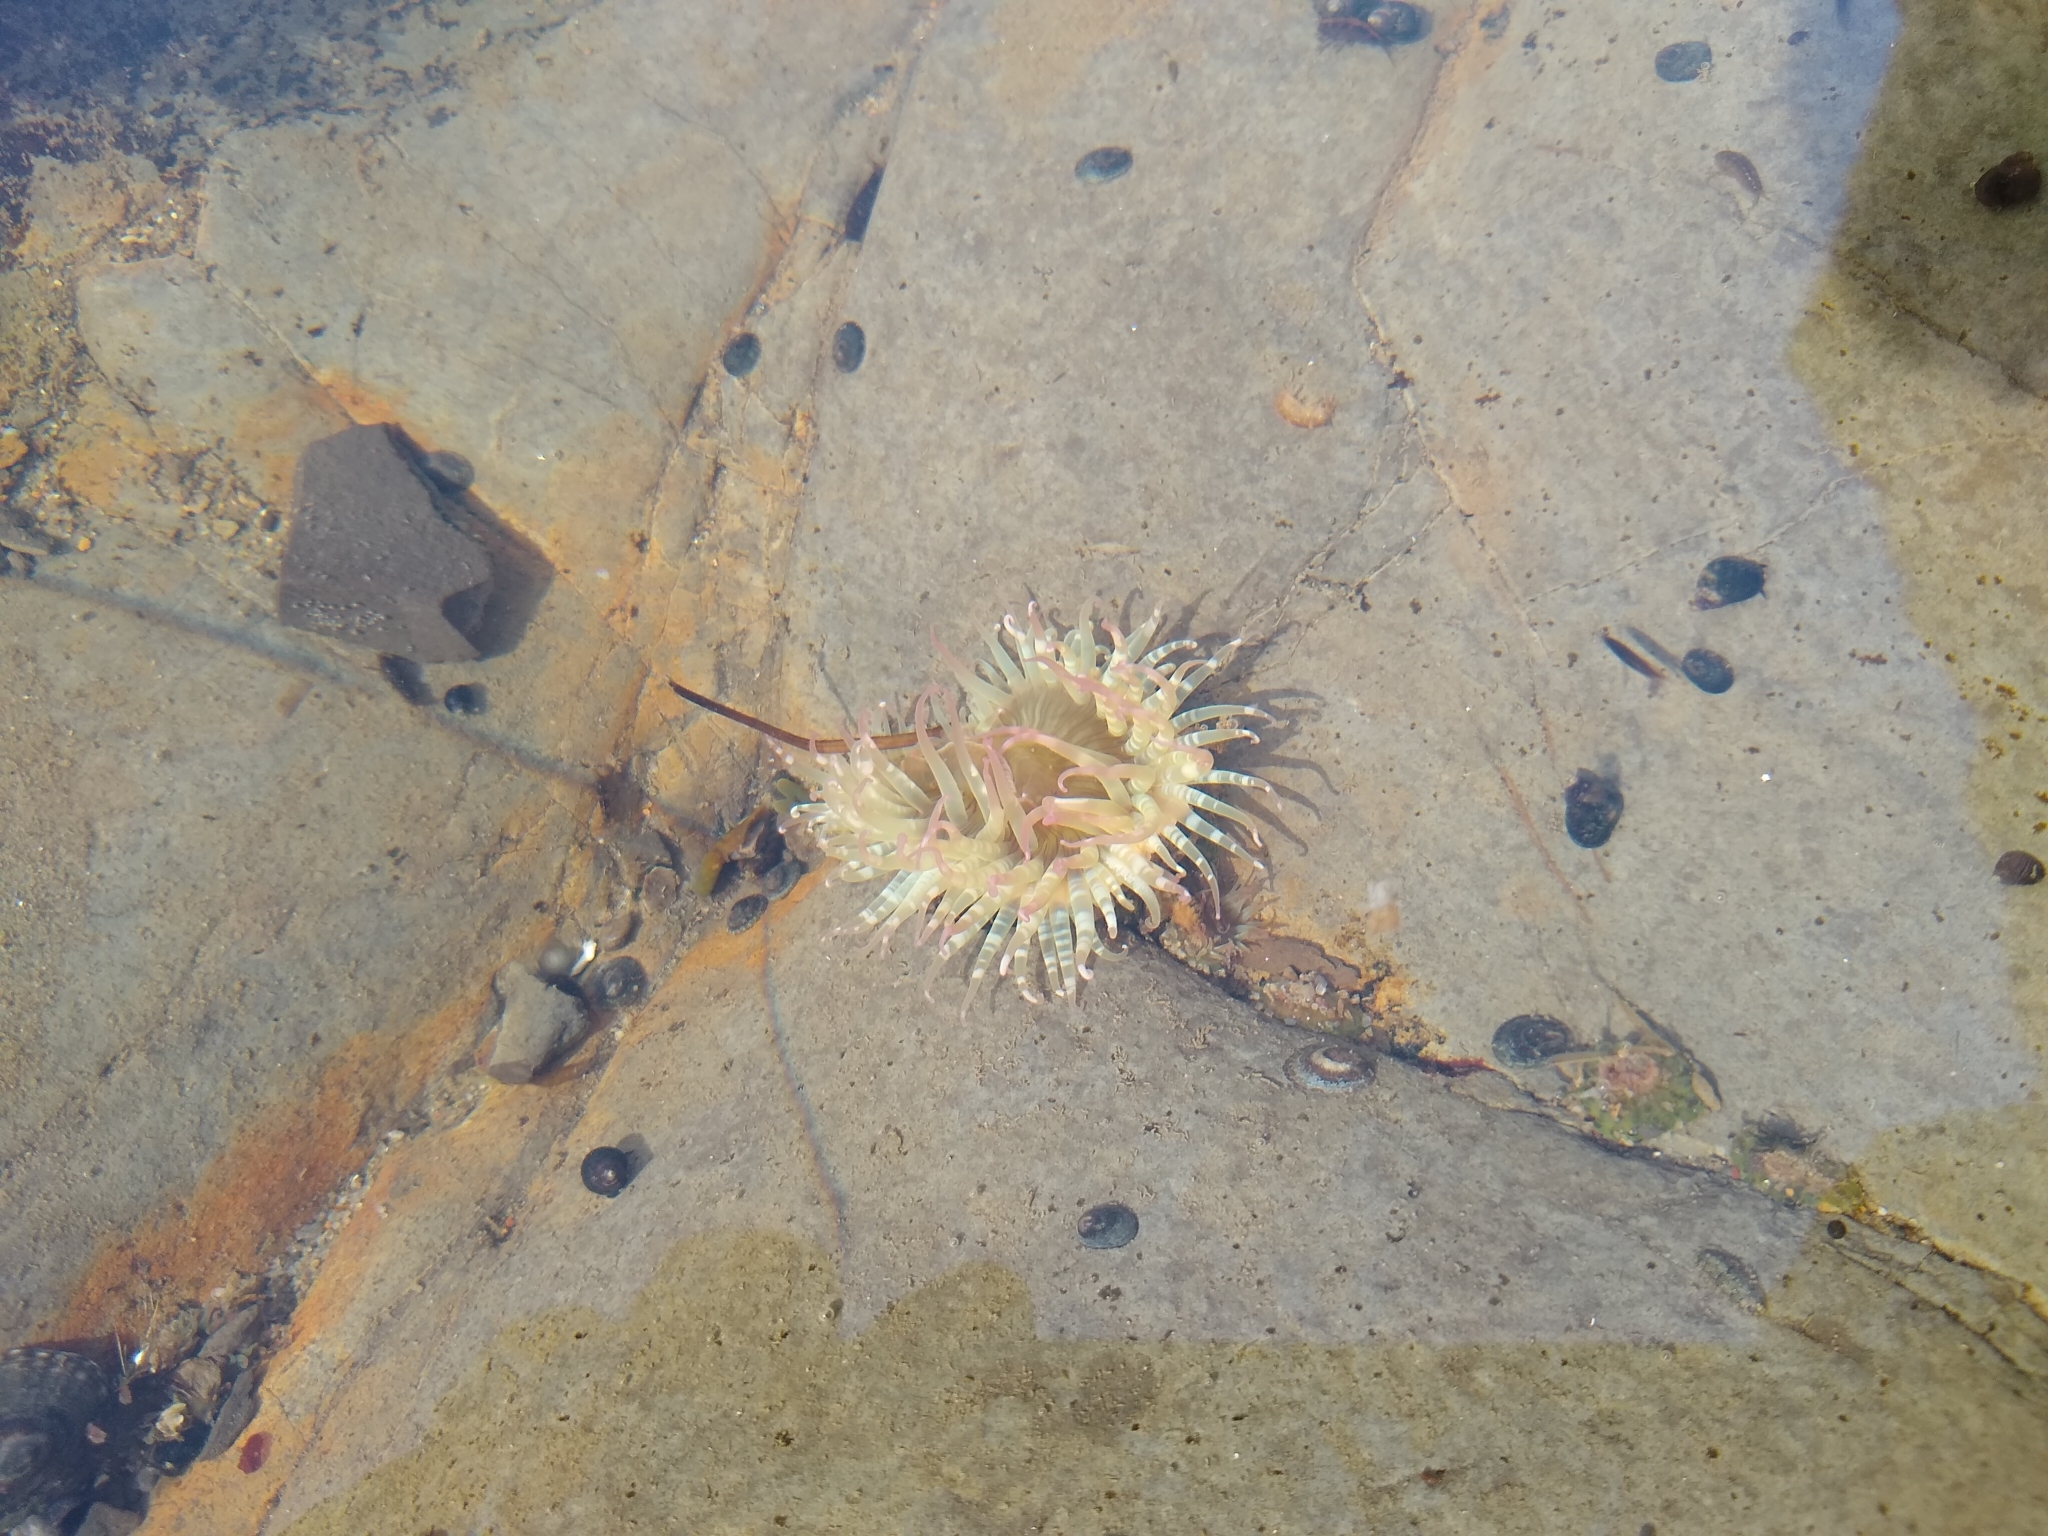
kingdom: Animalia
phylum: Cnidaria
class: Anthozoa
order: Actiniaria
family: Actiniidae
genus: Anthopleura
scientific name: Anthopleura elegantissima
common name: Clonal anemone
